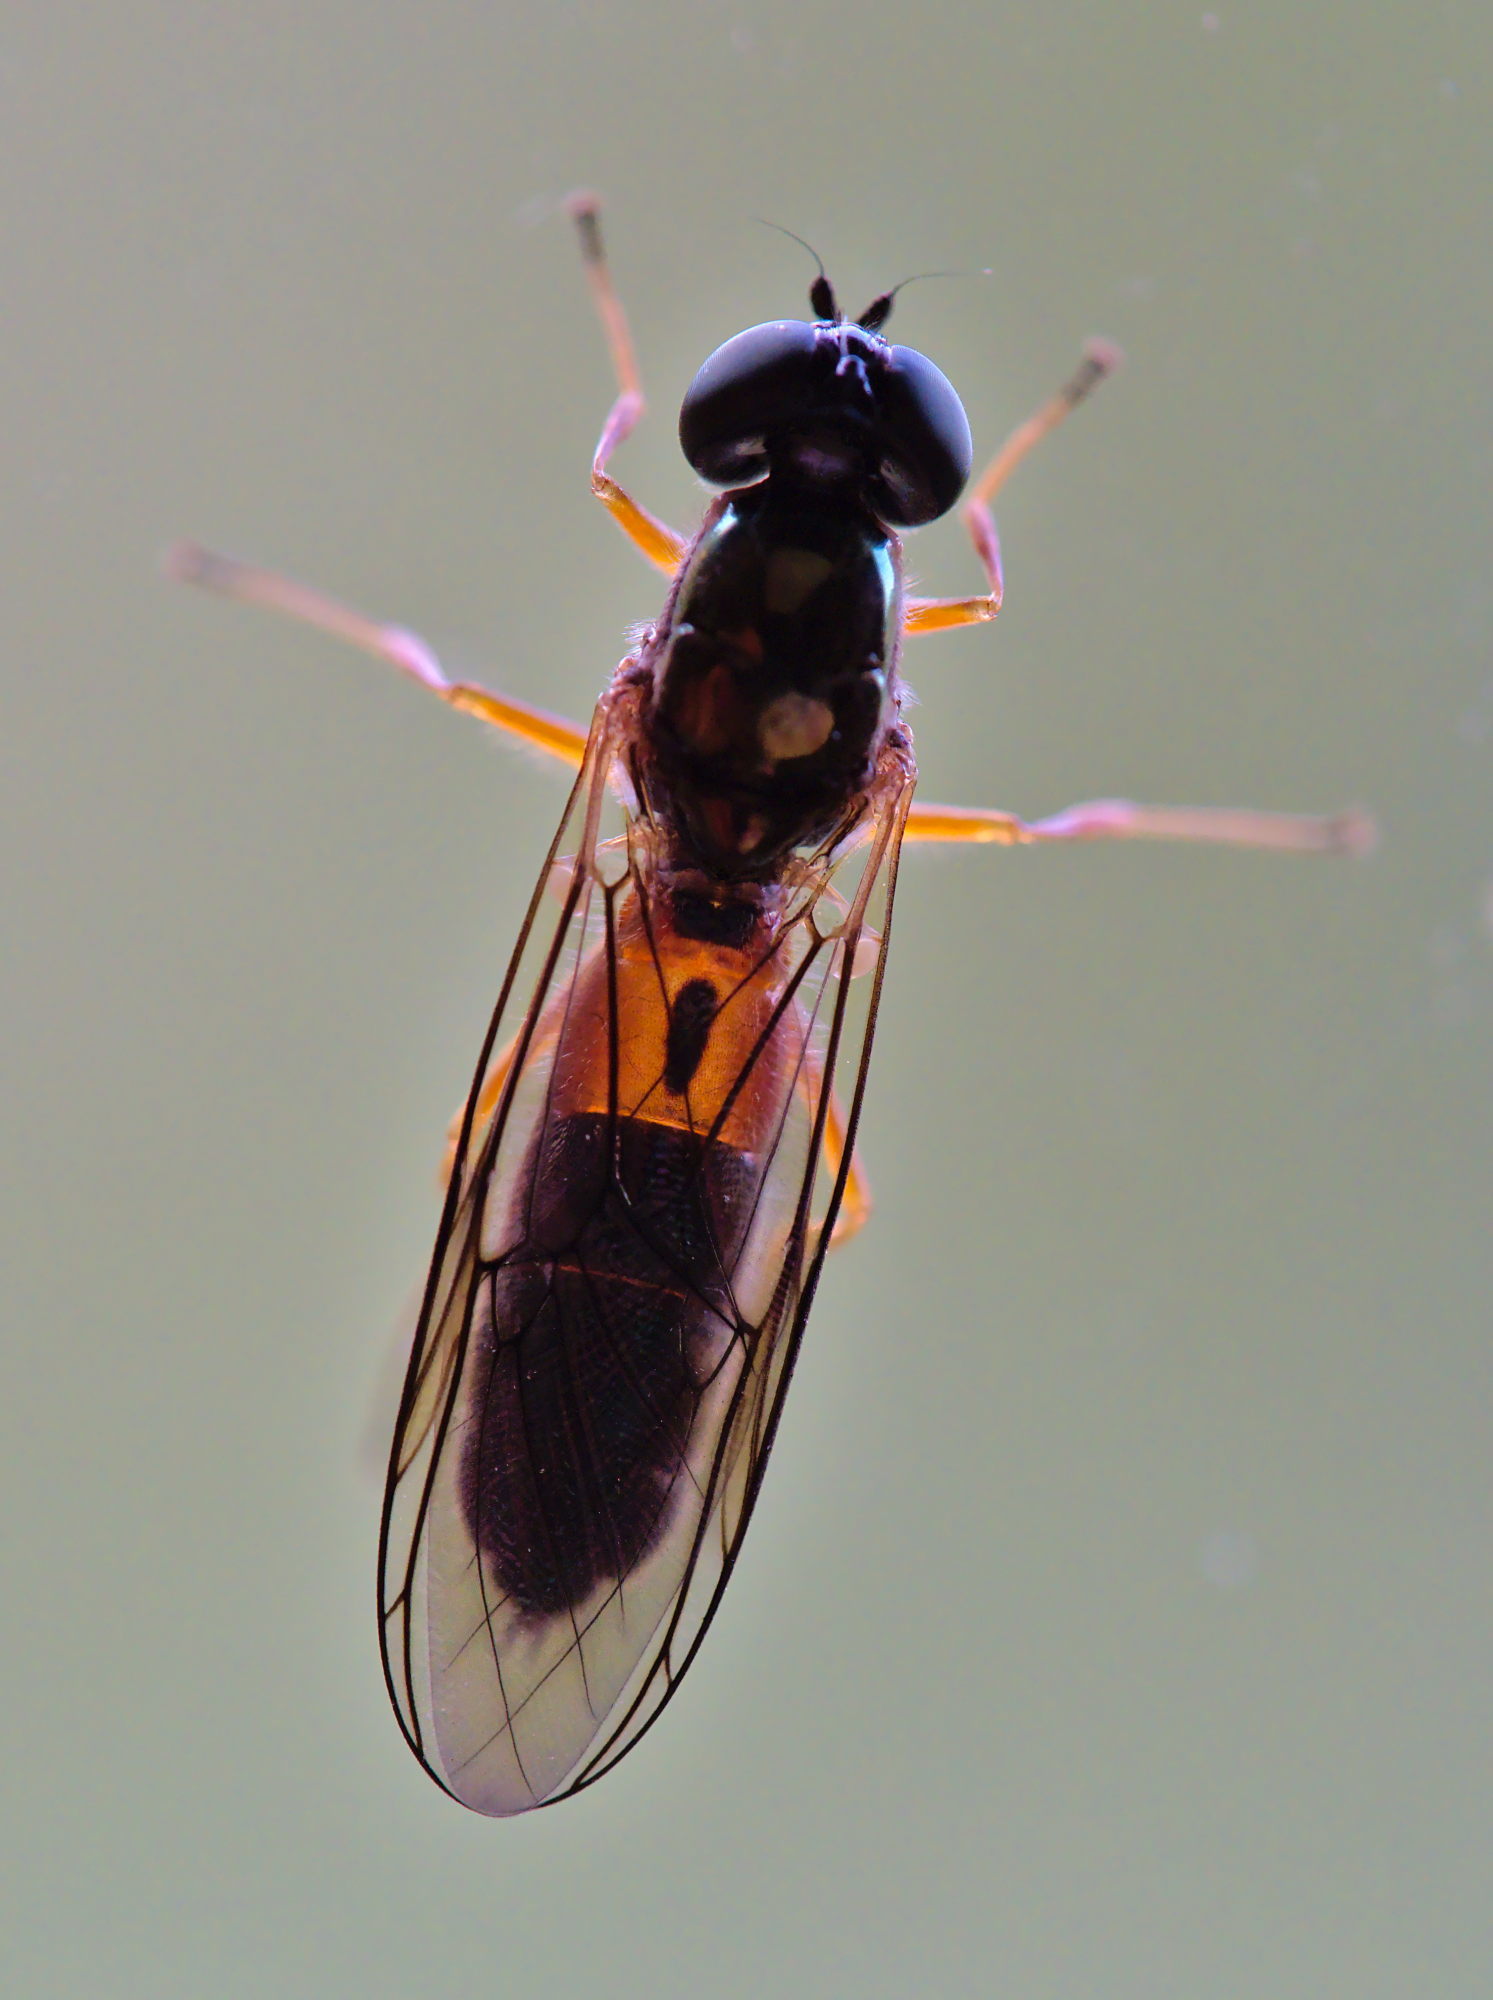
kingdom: Animalia
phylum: Arthropoda
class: Insecta
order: Diptera
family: Stratiomyidae
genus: Sargus
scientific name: Sargus bipunctatus
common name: Twin-spot centurion
